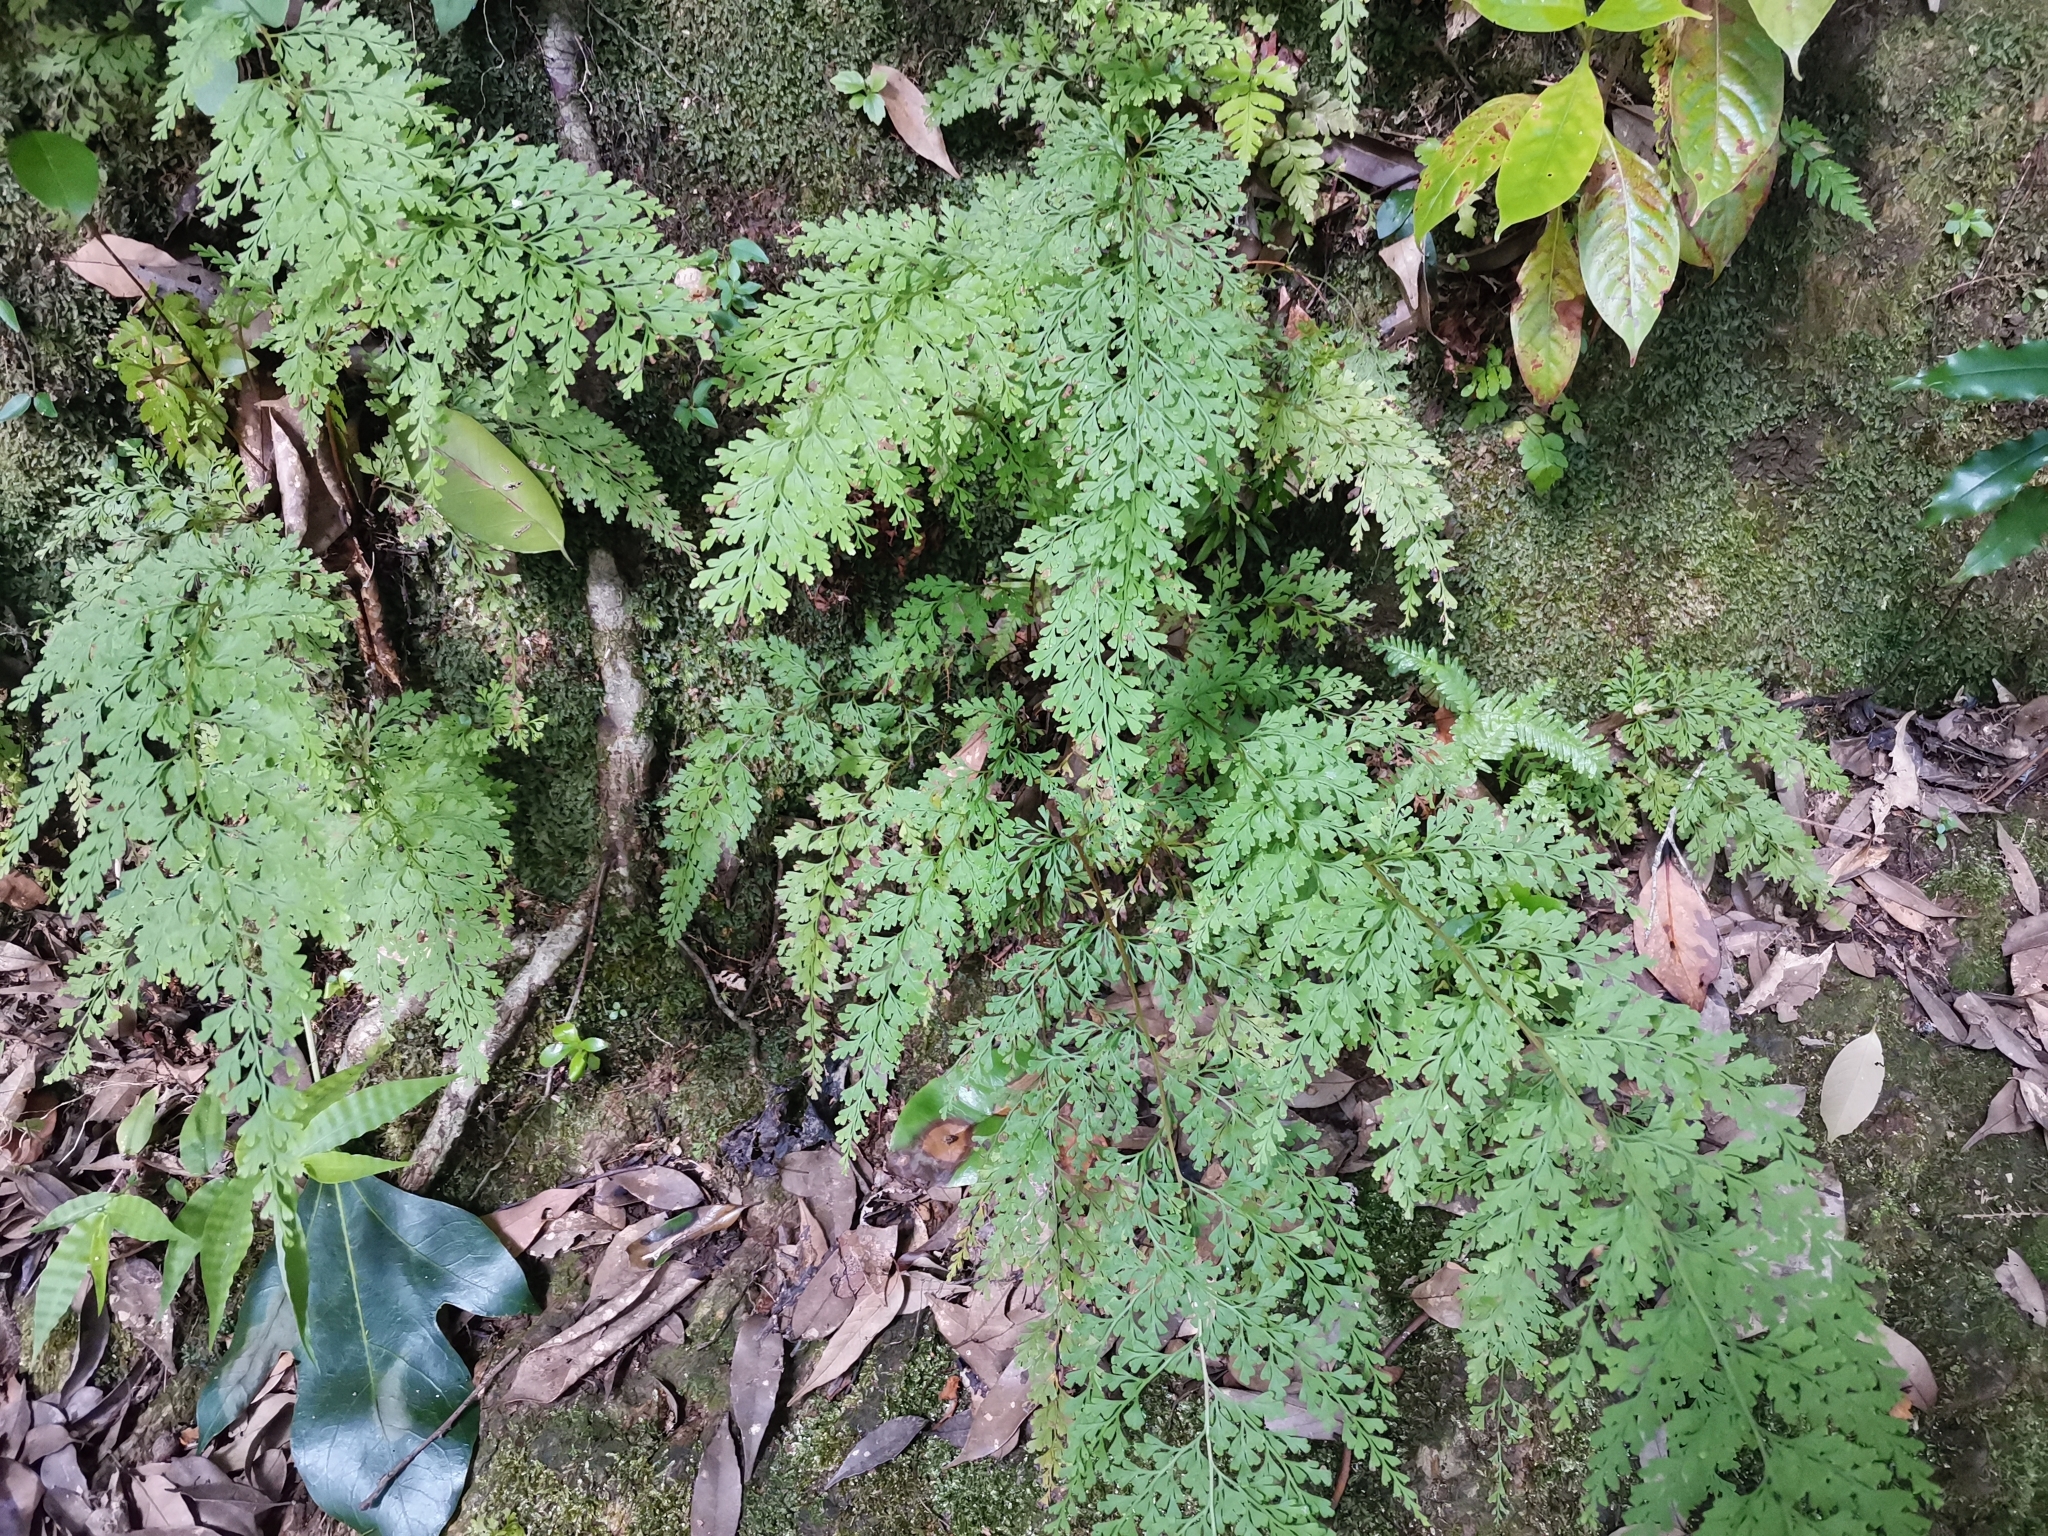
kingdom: Plantae
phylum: Tracheophyta
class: Polypodiopsida
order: Polypodiales
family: Lindsaeaceae
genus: Odontosoria
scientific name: Odontosoria chinensis
